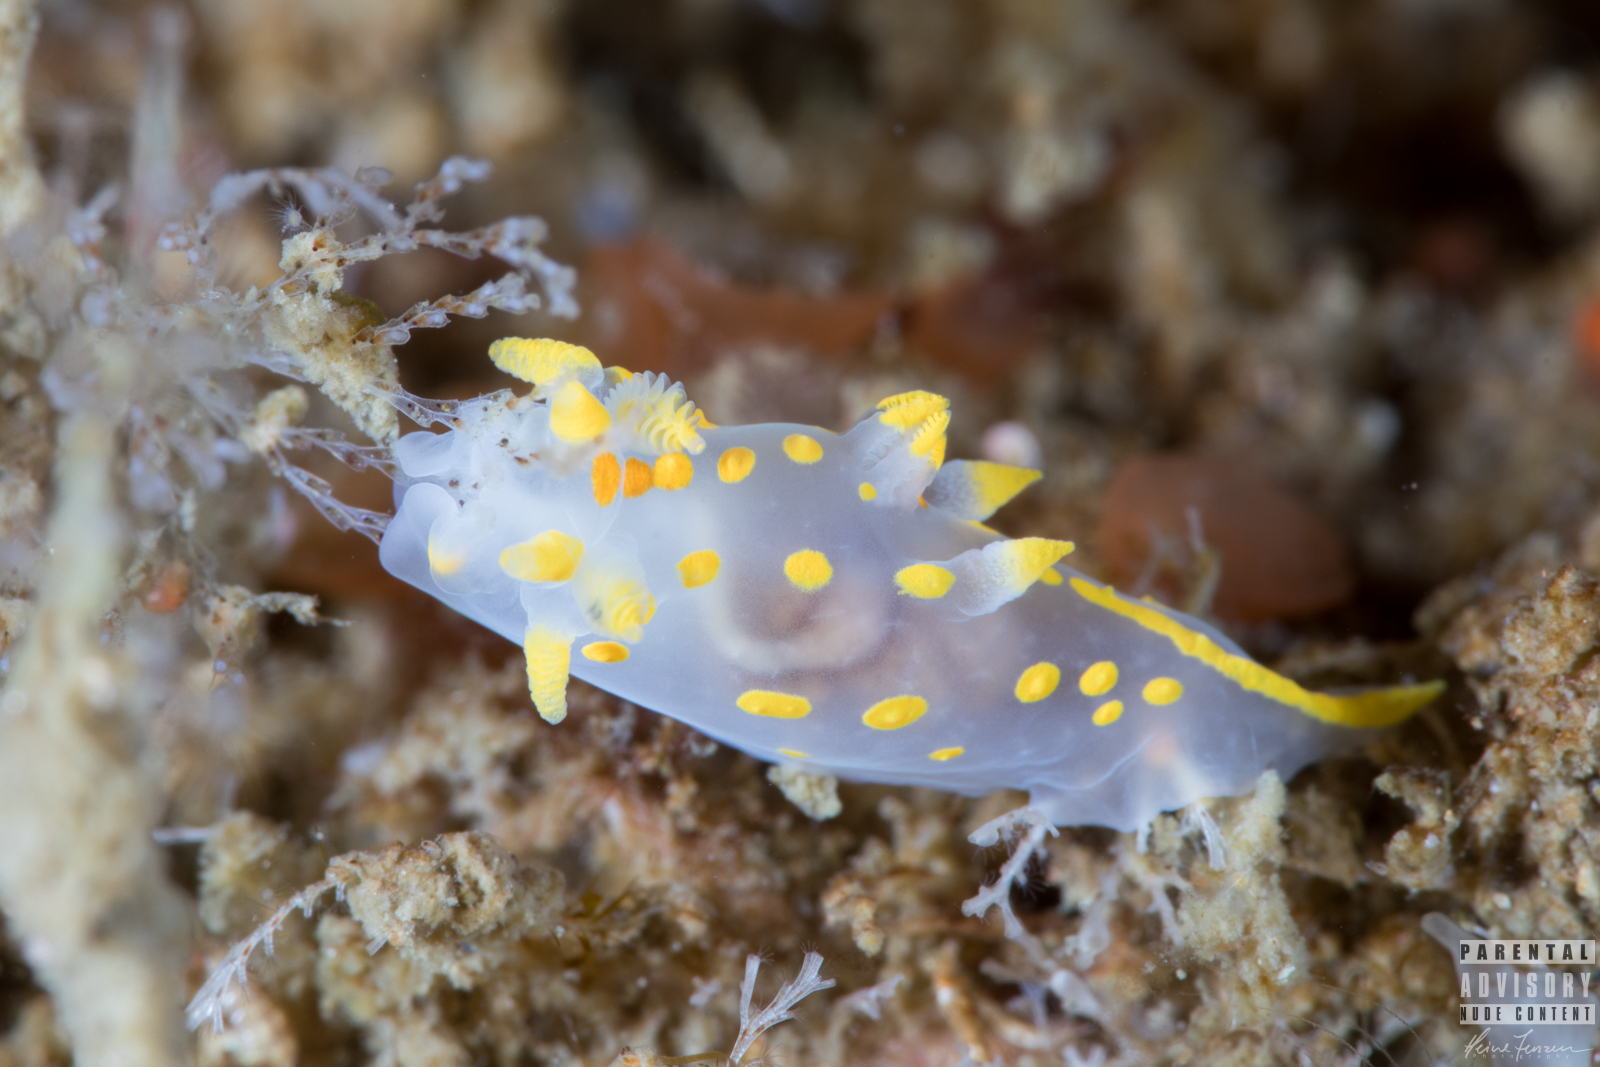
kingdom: Animalia
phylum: Mollusca
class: Gastropoda
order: Nudibranchia
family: Polyceridae
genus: Polycera
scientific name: Polycera quadrilineata
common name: Four-striped polycera
